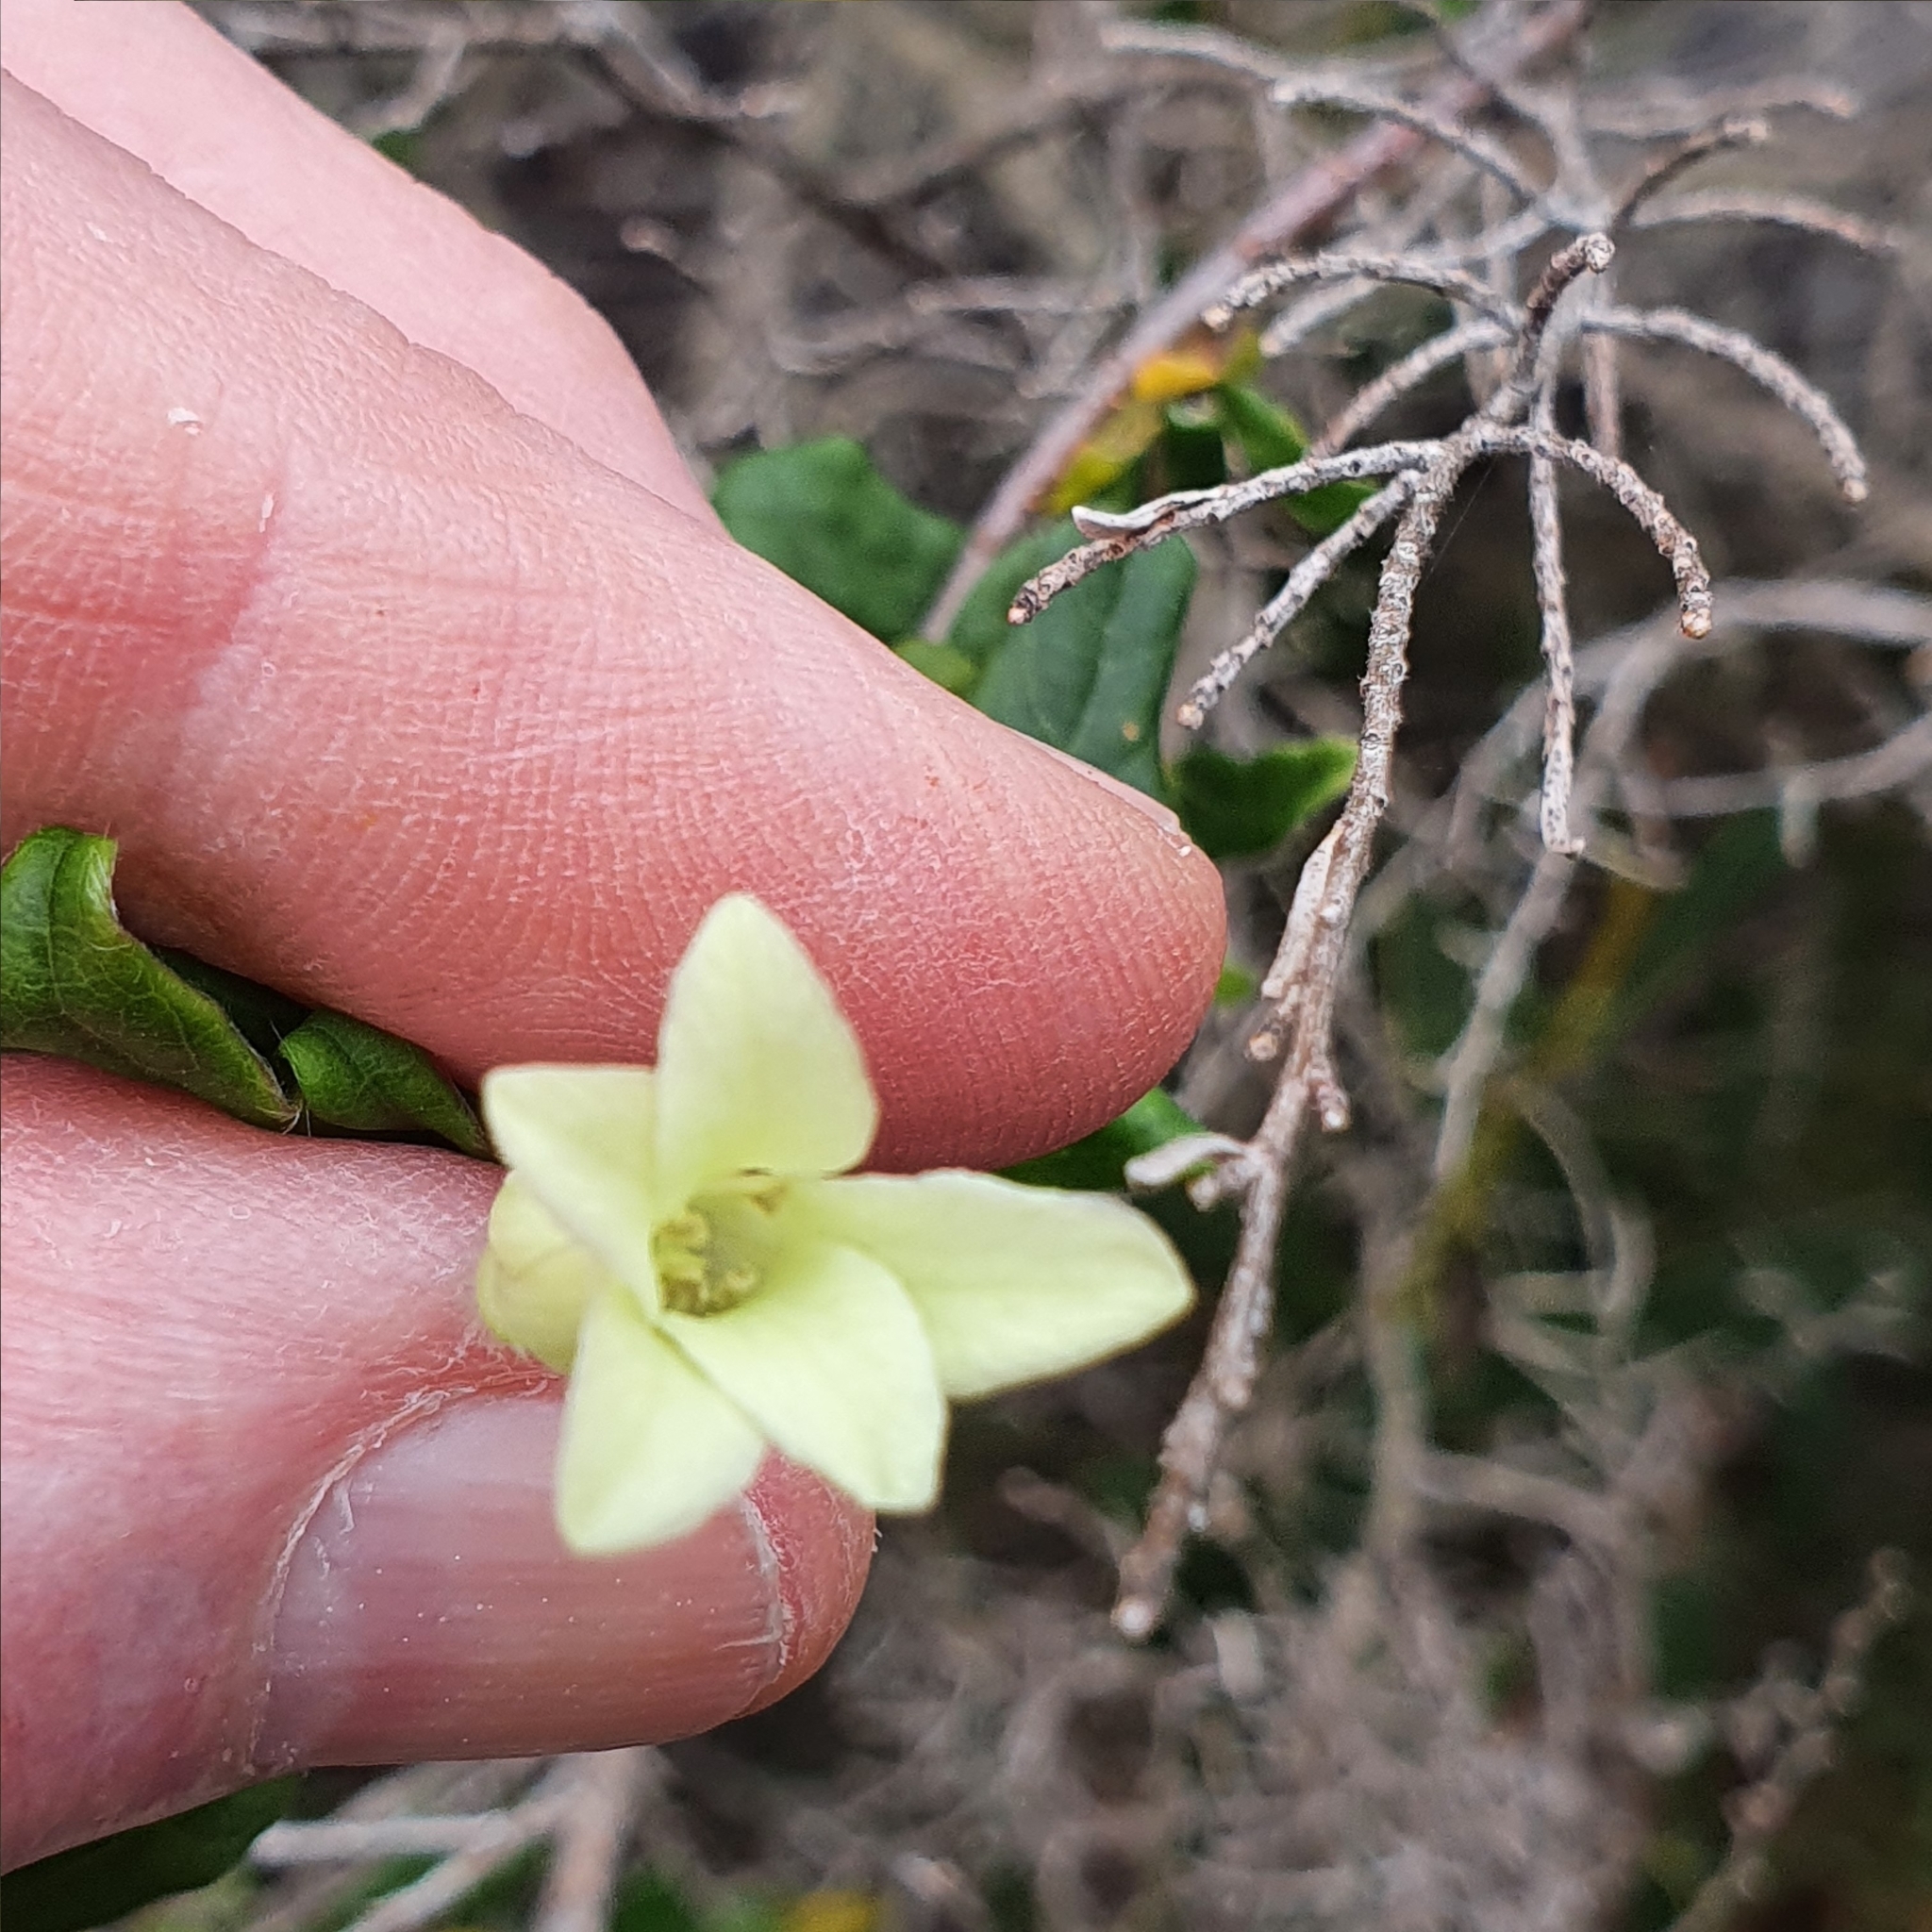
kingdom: Plantae
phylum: Tracheophyta
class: Magnoliopsida
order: Apiales
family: Pittosporaceae
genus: Billardiera
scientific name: Billardiera scandens
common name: Apple-berry
